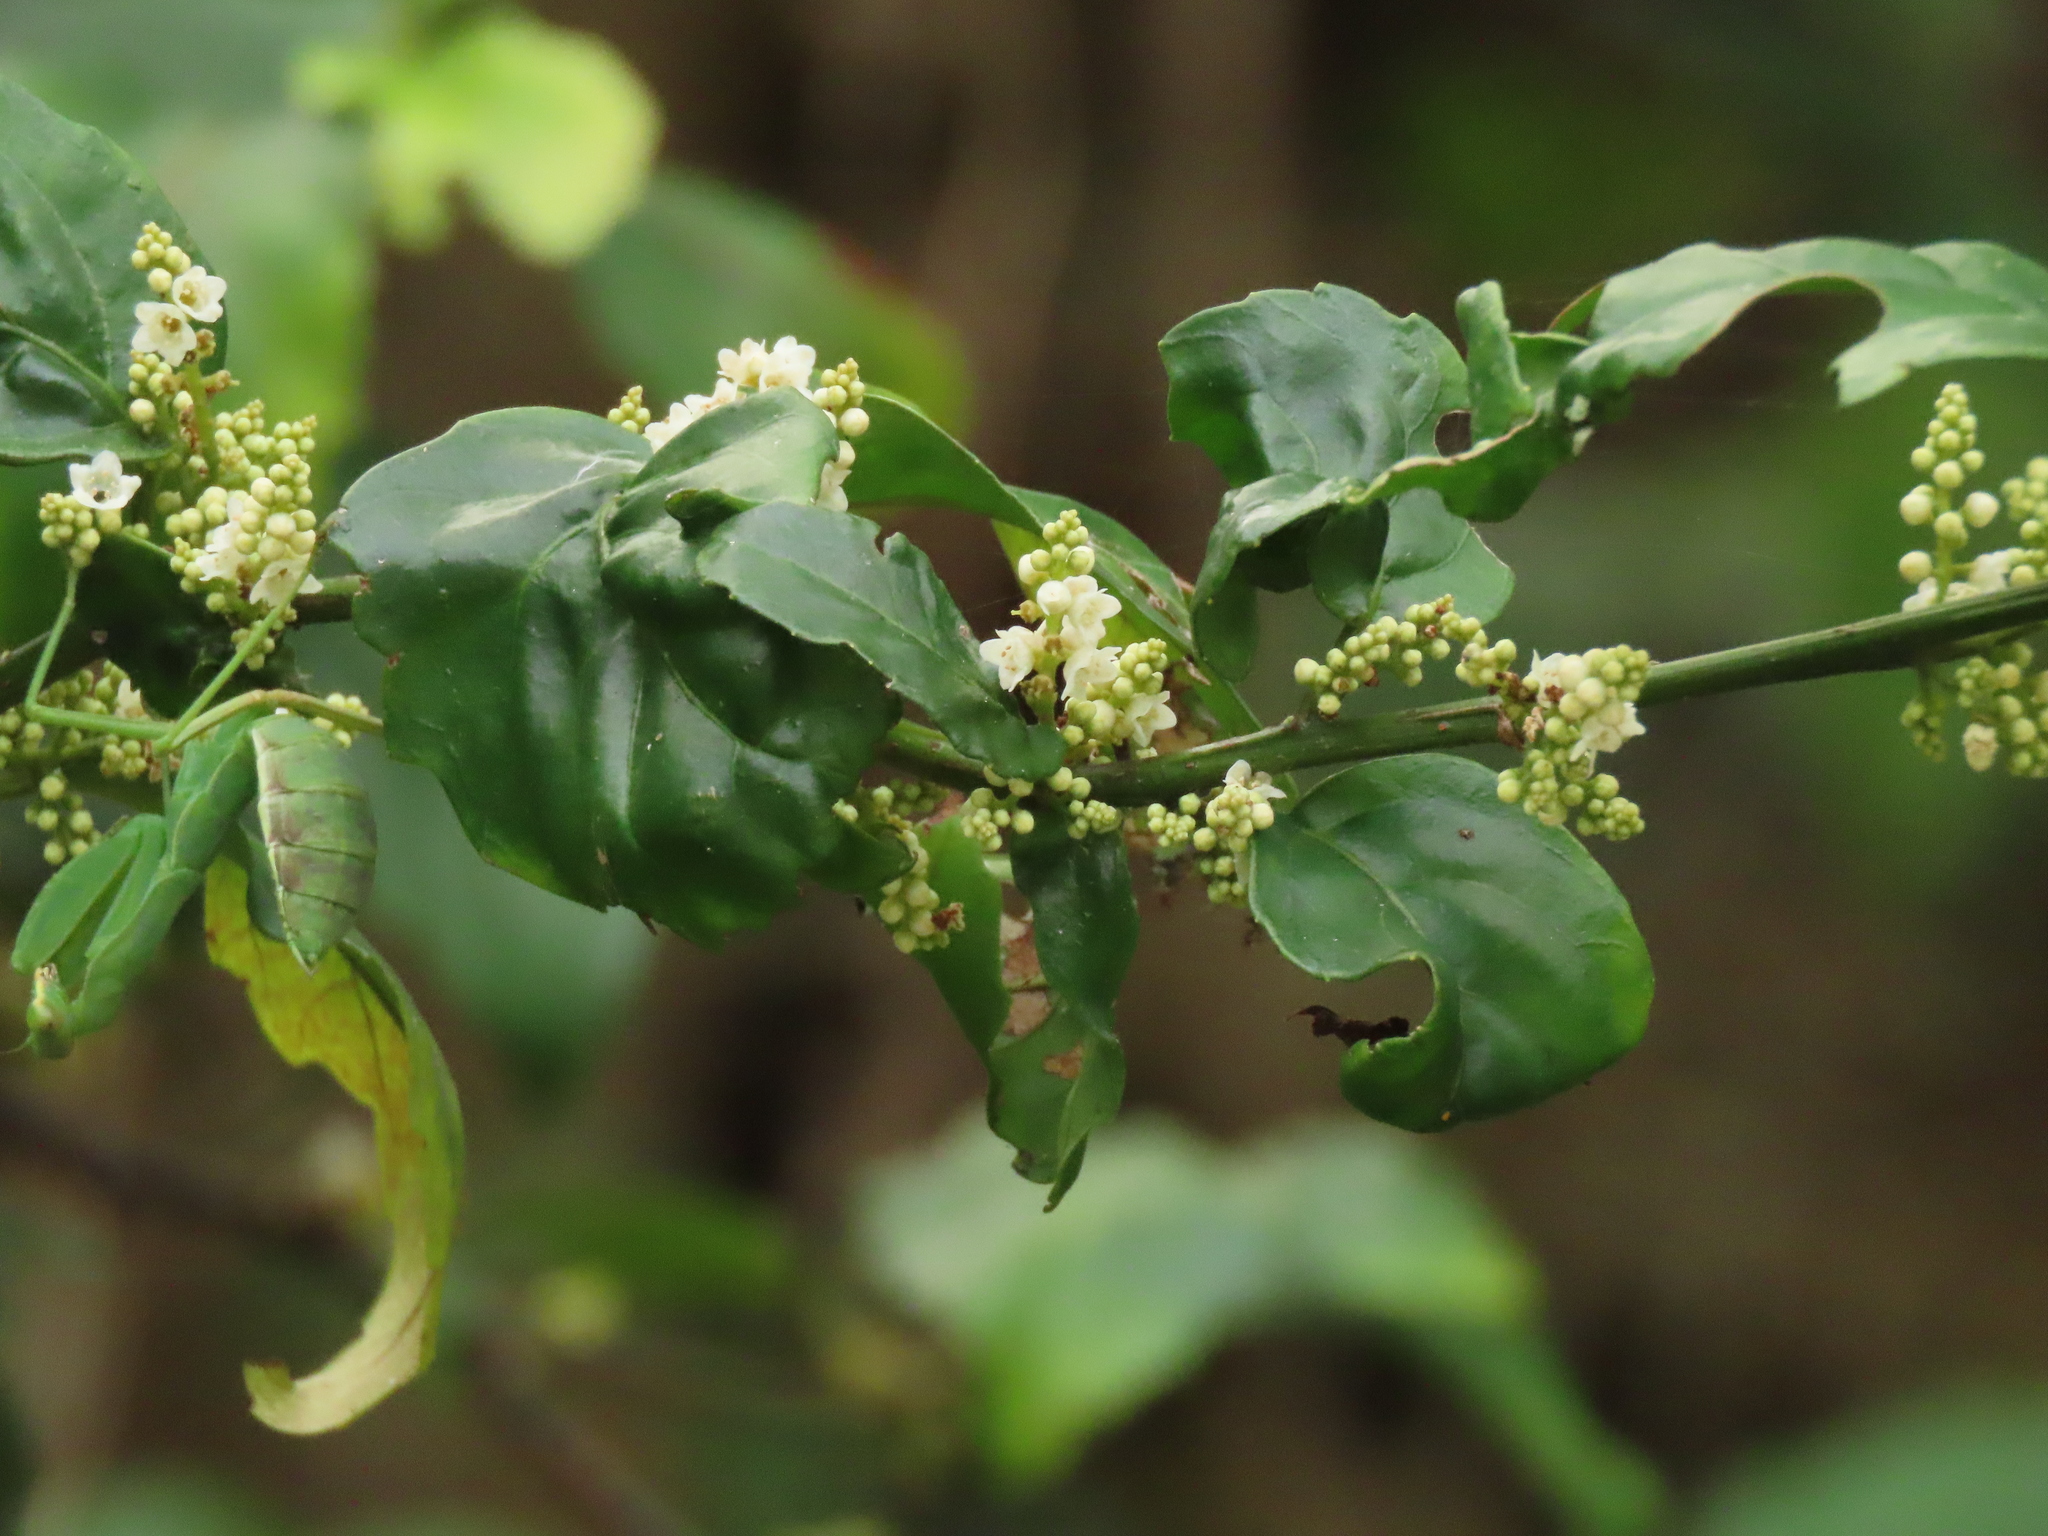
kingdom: Plantae
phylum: Tracheophyta
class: Magnoliopsida
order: Ericales
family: Primulaceae
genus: Maesa
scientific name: Maesa perlaria
